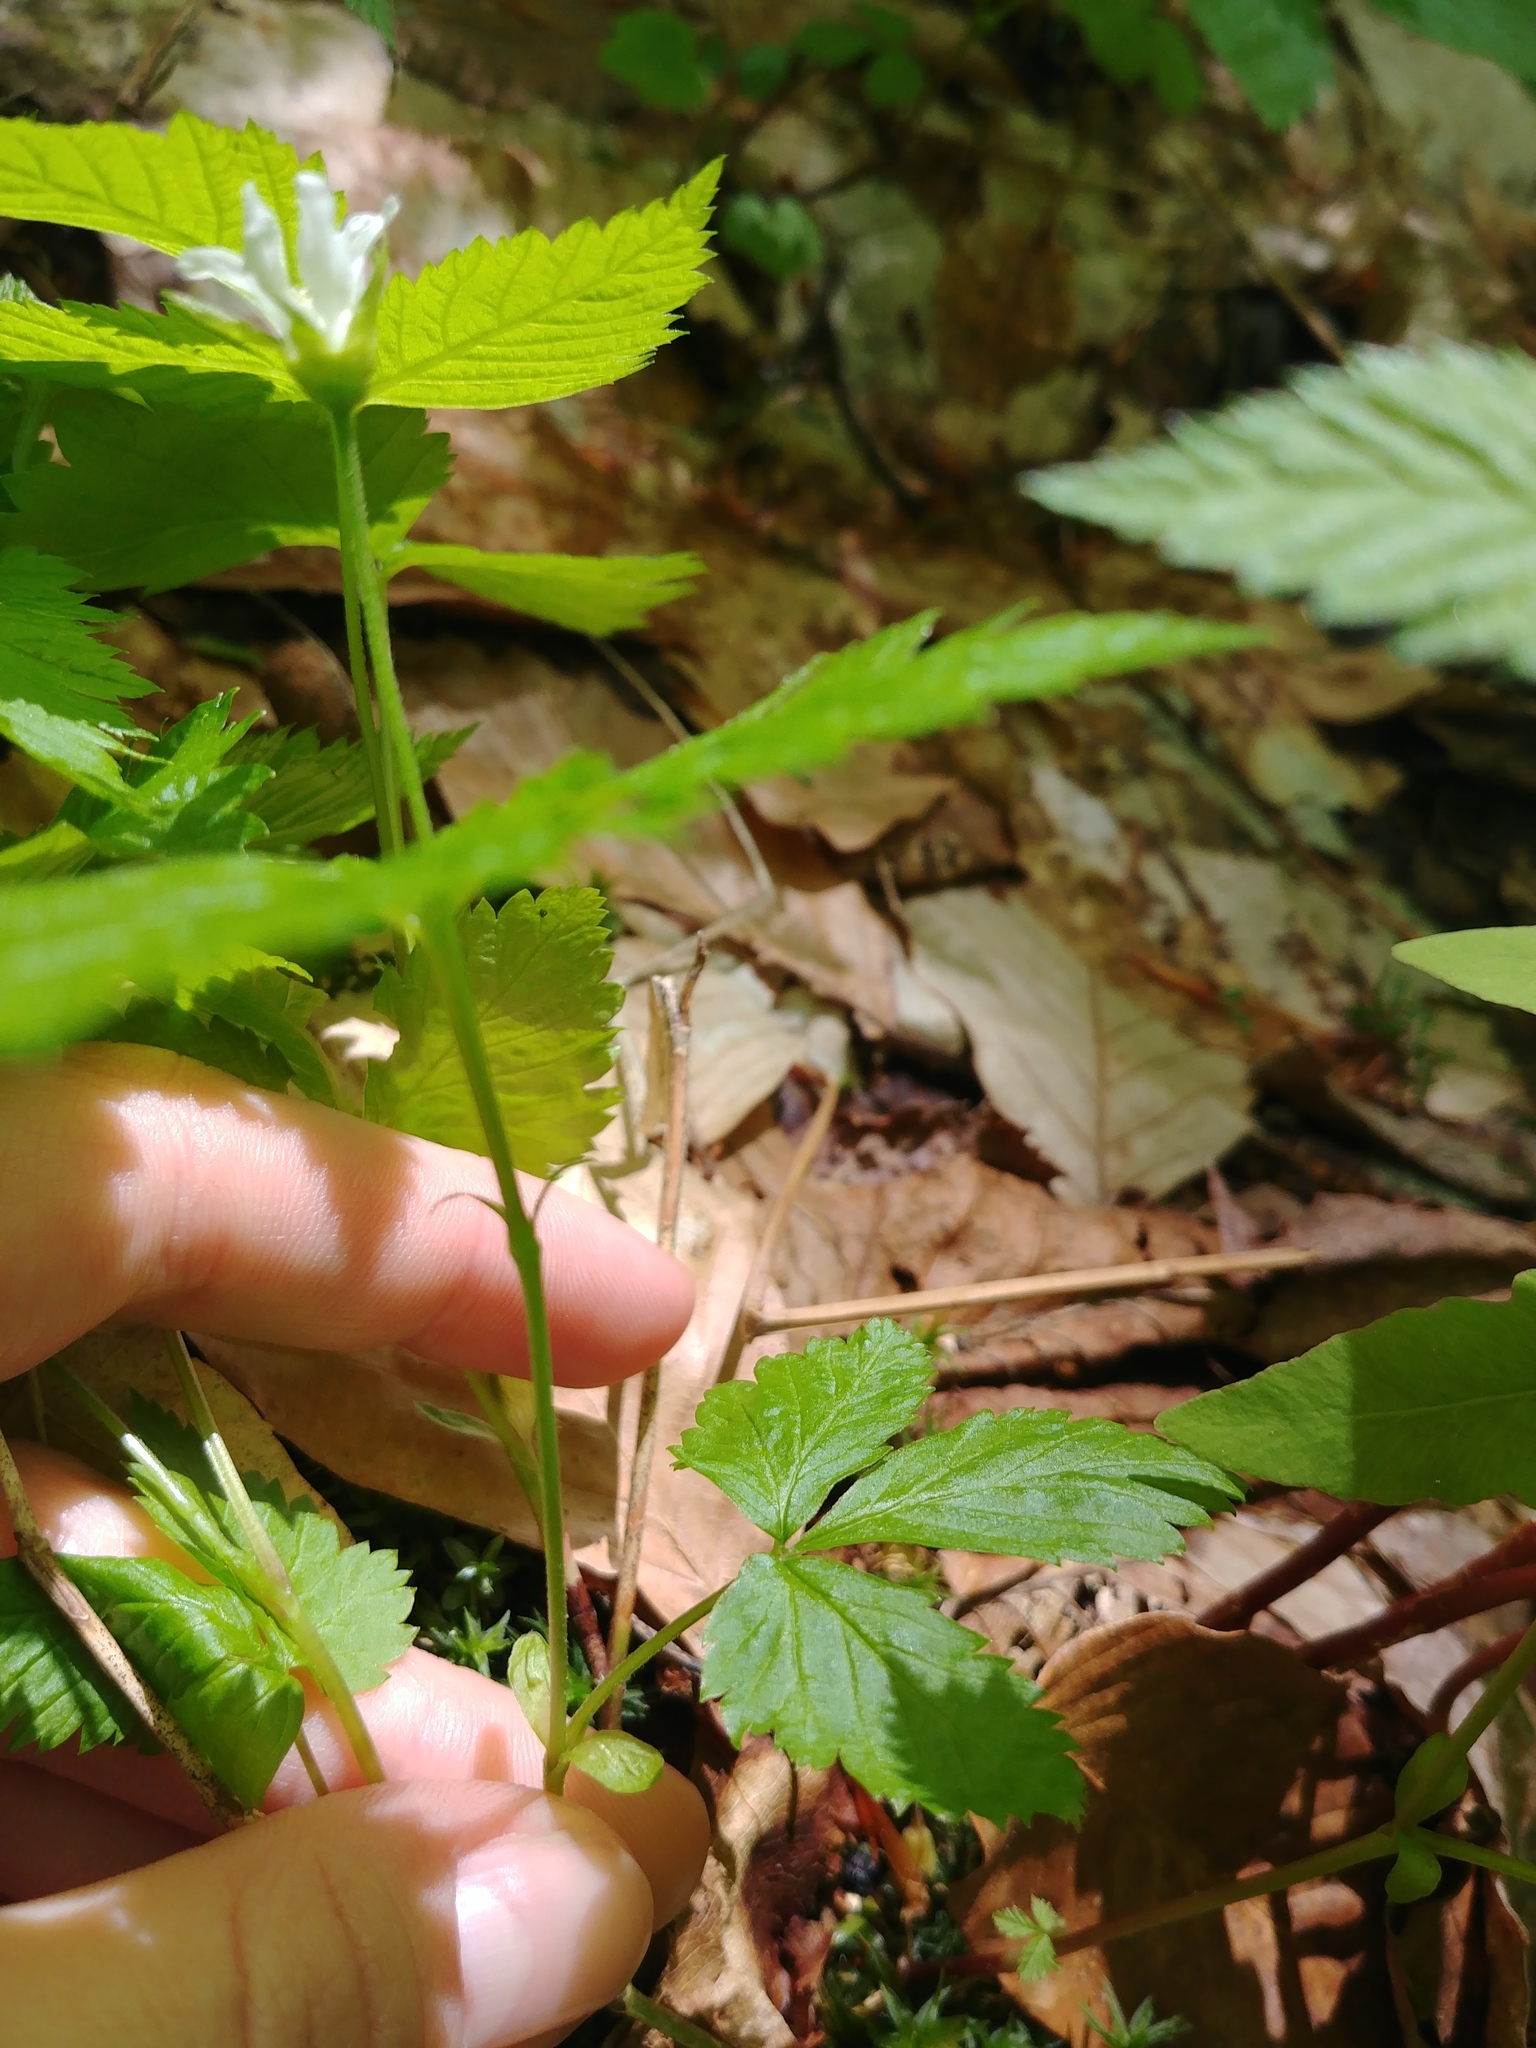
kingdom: Plantae
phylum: Tracheophyta
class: Magnoliopsida
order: Rosales
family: Rosaceae
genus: Rubus
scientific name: Rubus pubescens
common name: Dwarf raspberry
